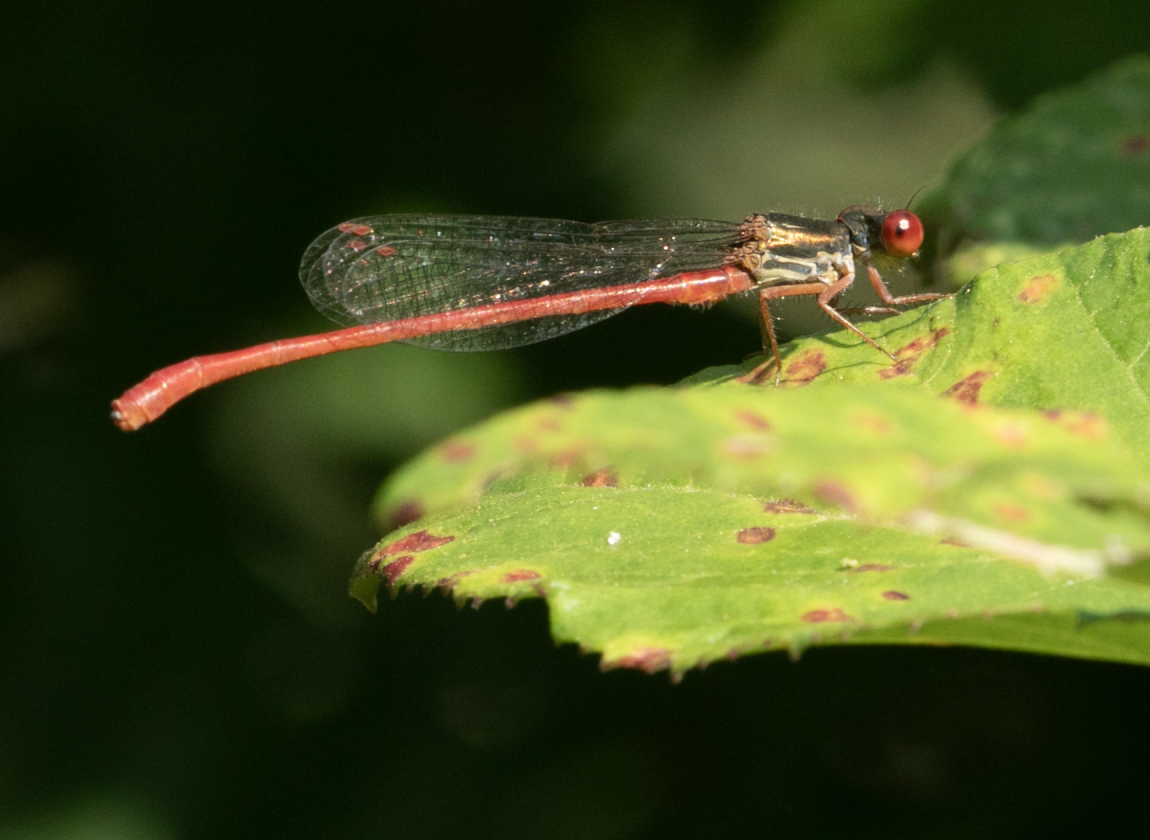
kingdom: Animalia
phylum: Arthropoda
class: Insecta
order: Odonata
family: Coenagrionidae
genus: Ceriagrion
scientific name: Ceriagrion tenellum
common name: Small red damselfly
